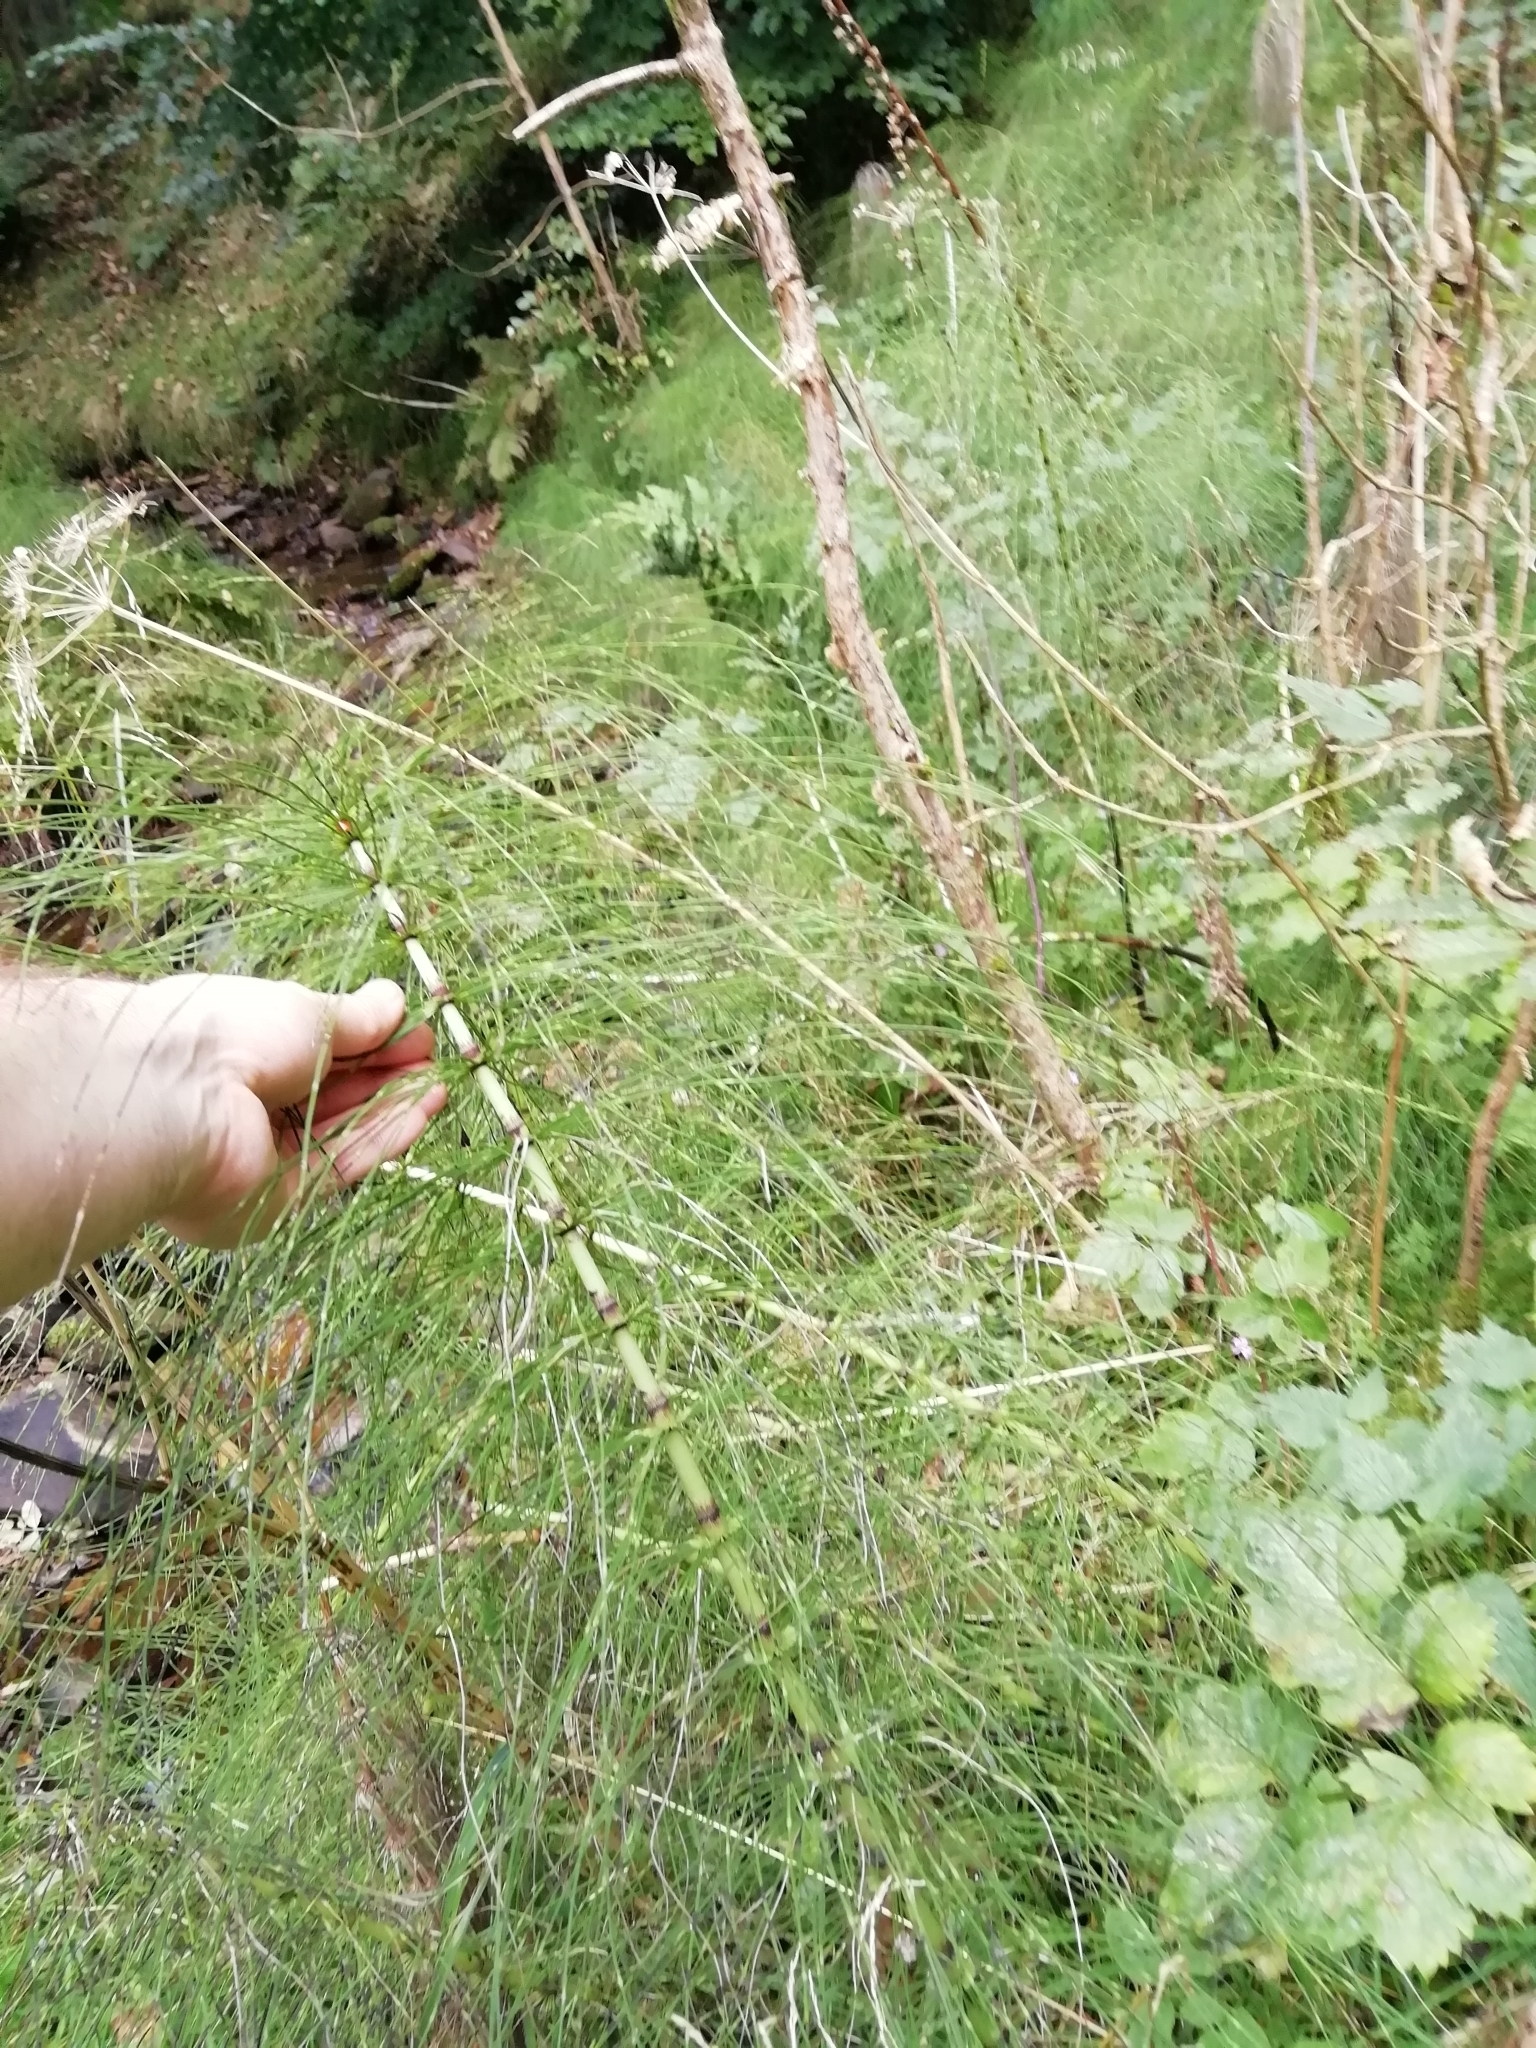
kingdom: Plantae
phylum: Tracheophyta
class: Polypodiopsida
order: Equisetales
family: Equisetaceae
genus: Equisetum
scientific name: Equisetum telmateia
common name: Great horsetail
